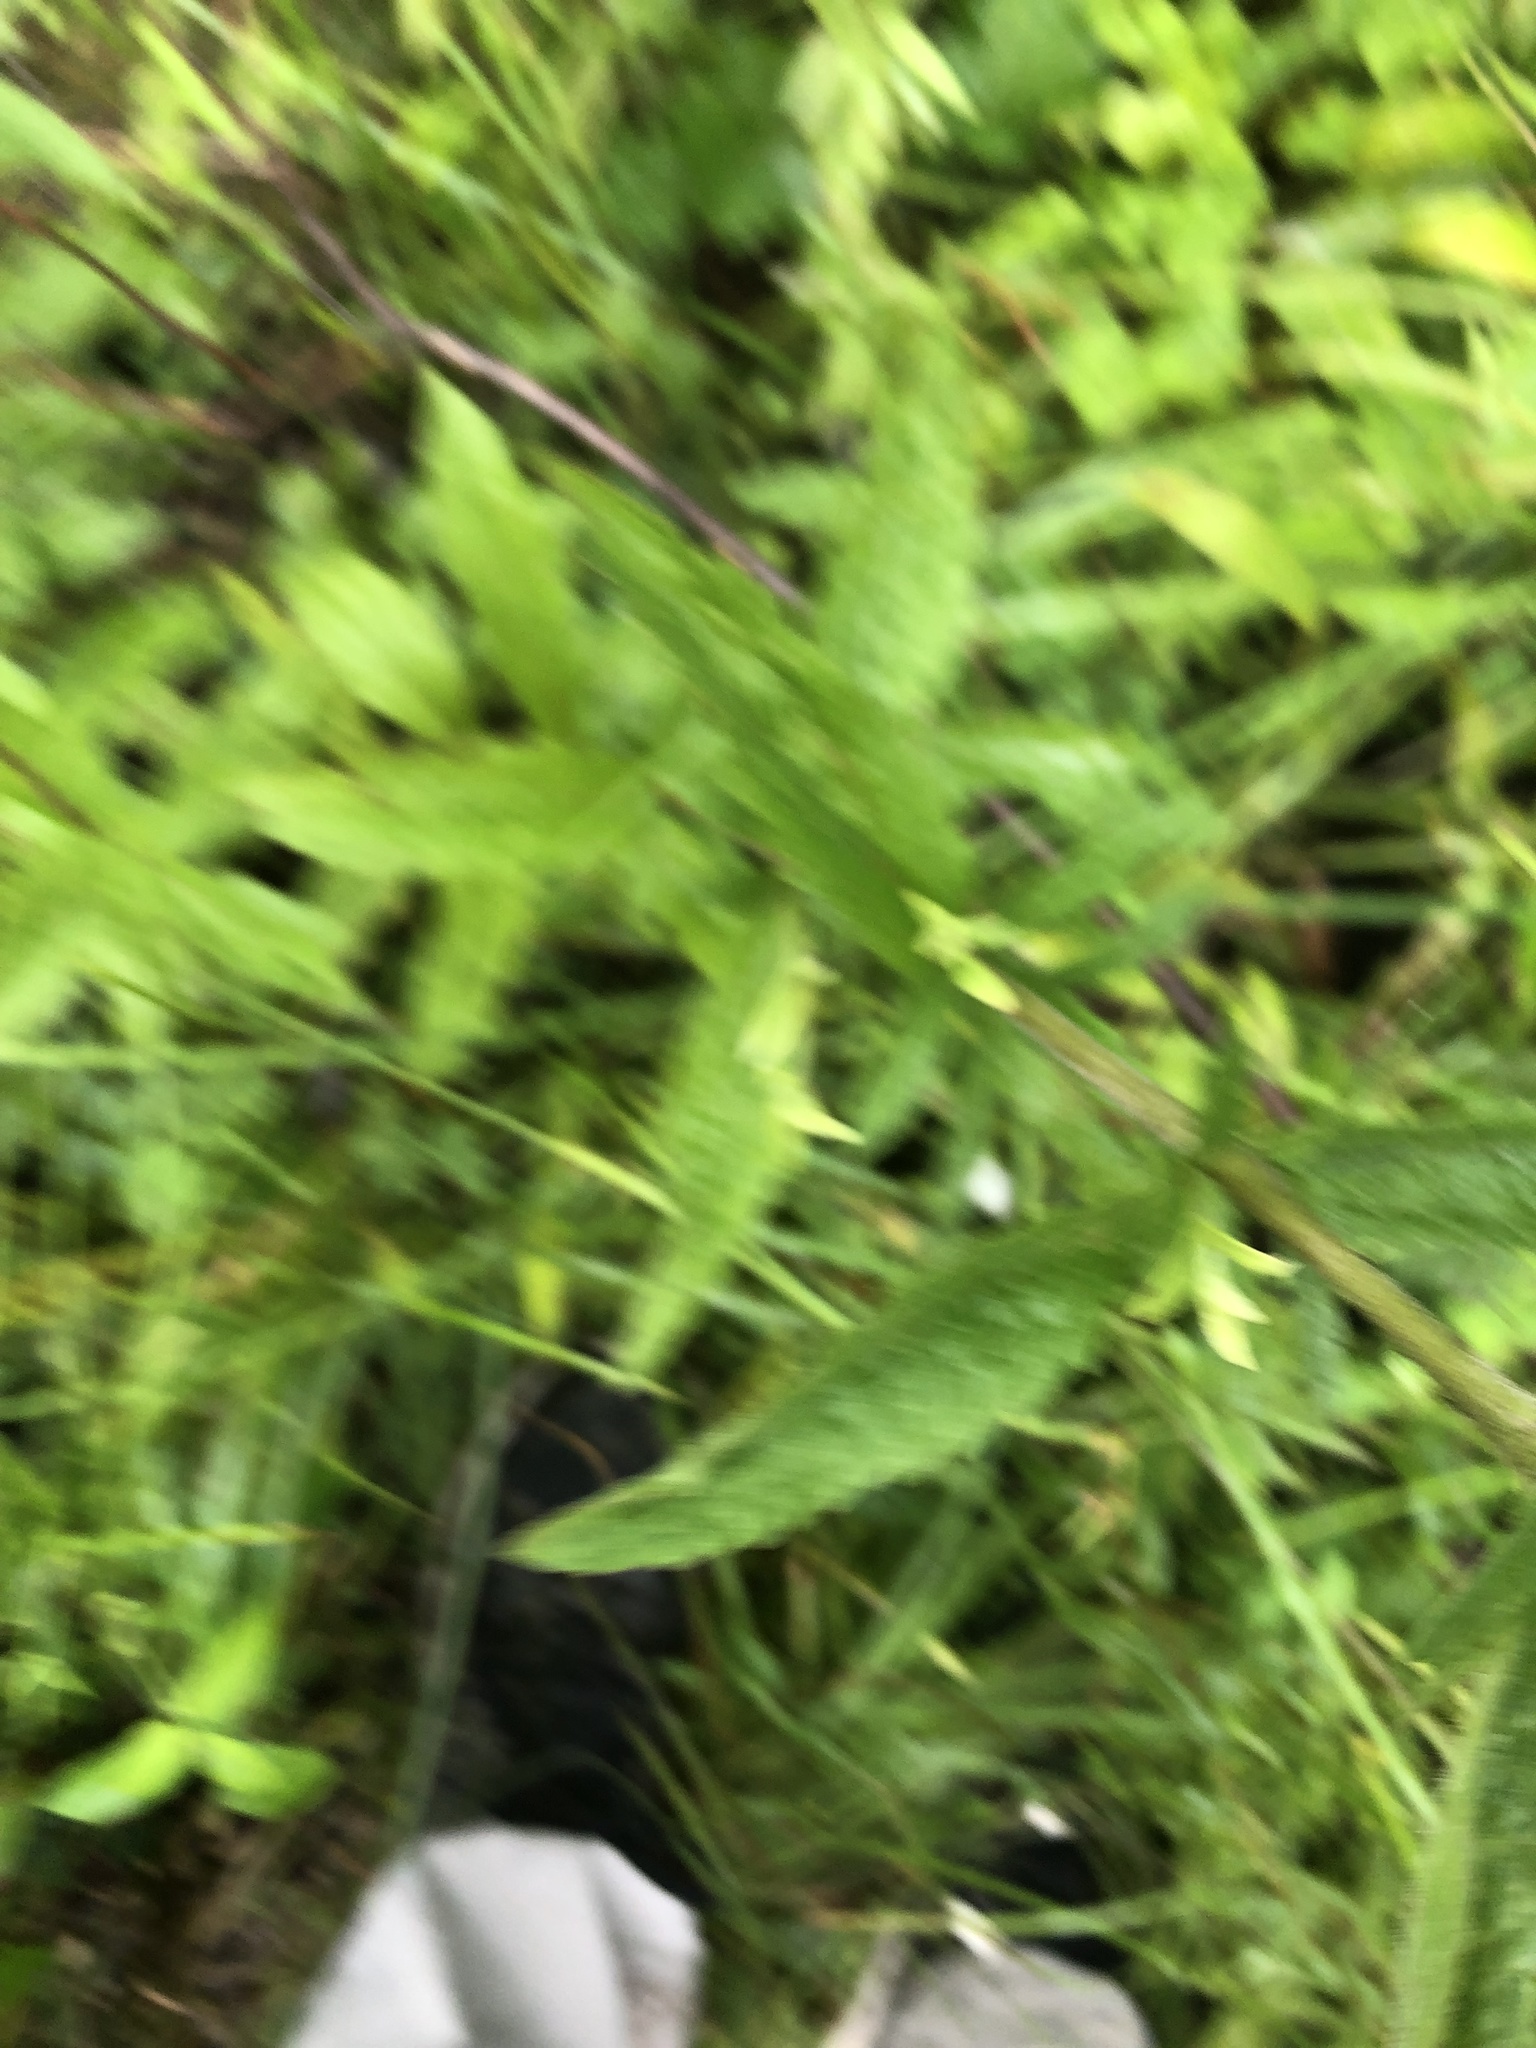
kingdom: Plantae
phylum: Tracheophyta
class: Magnoliopsida
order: Asterales
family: Asteraceae
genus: Eupatorium
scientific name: Eupatorium album
